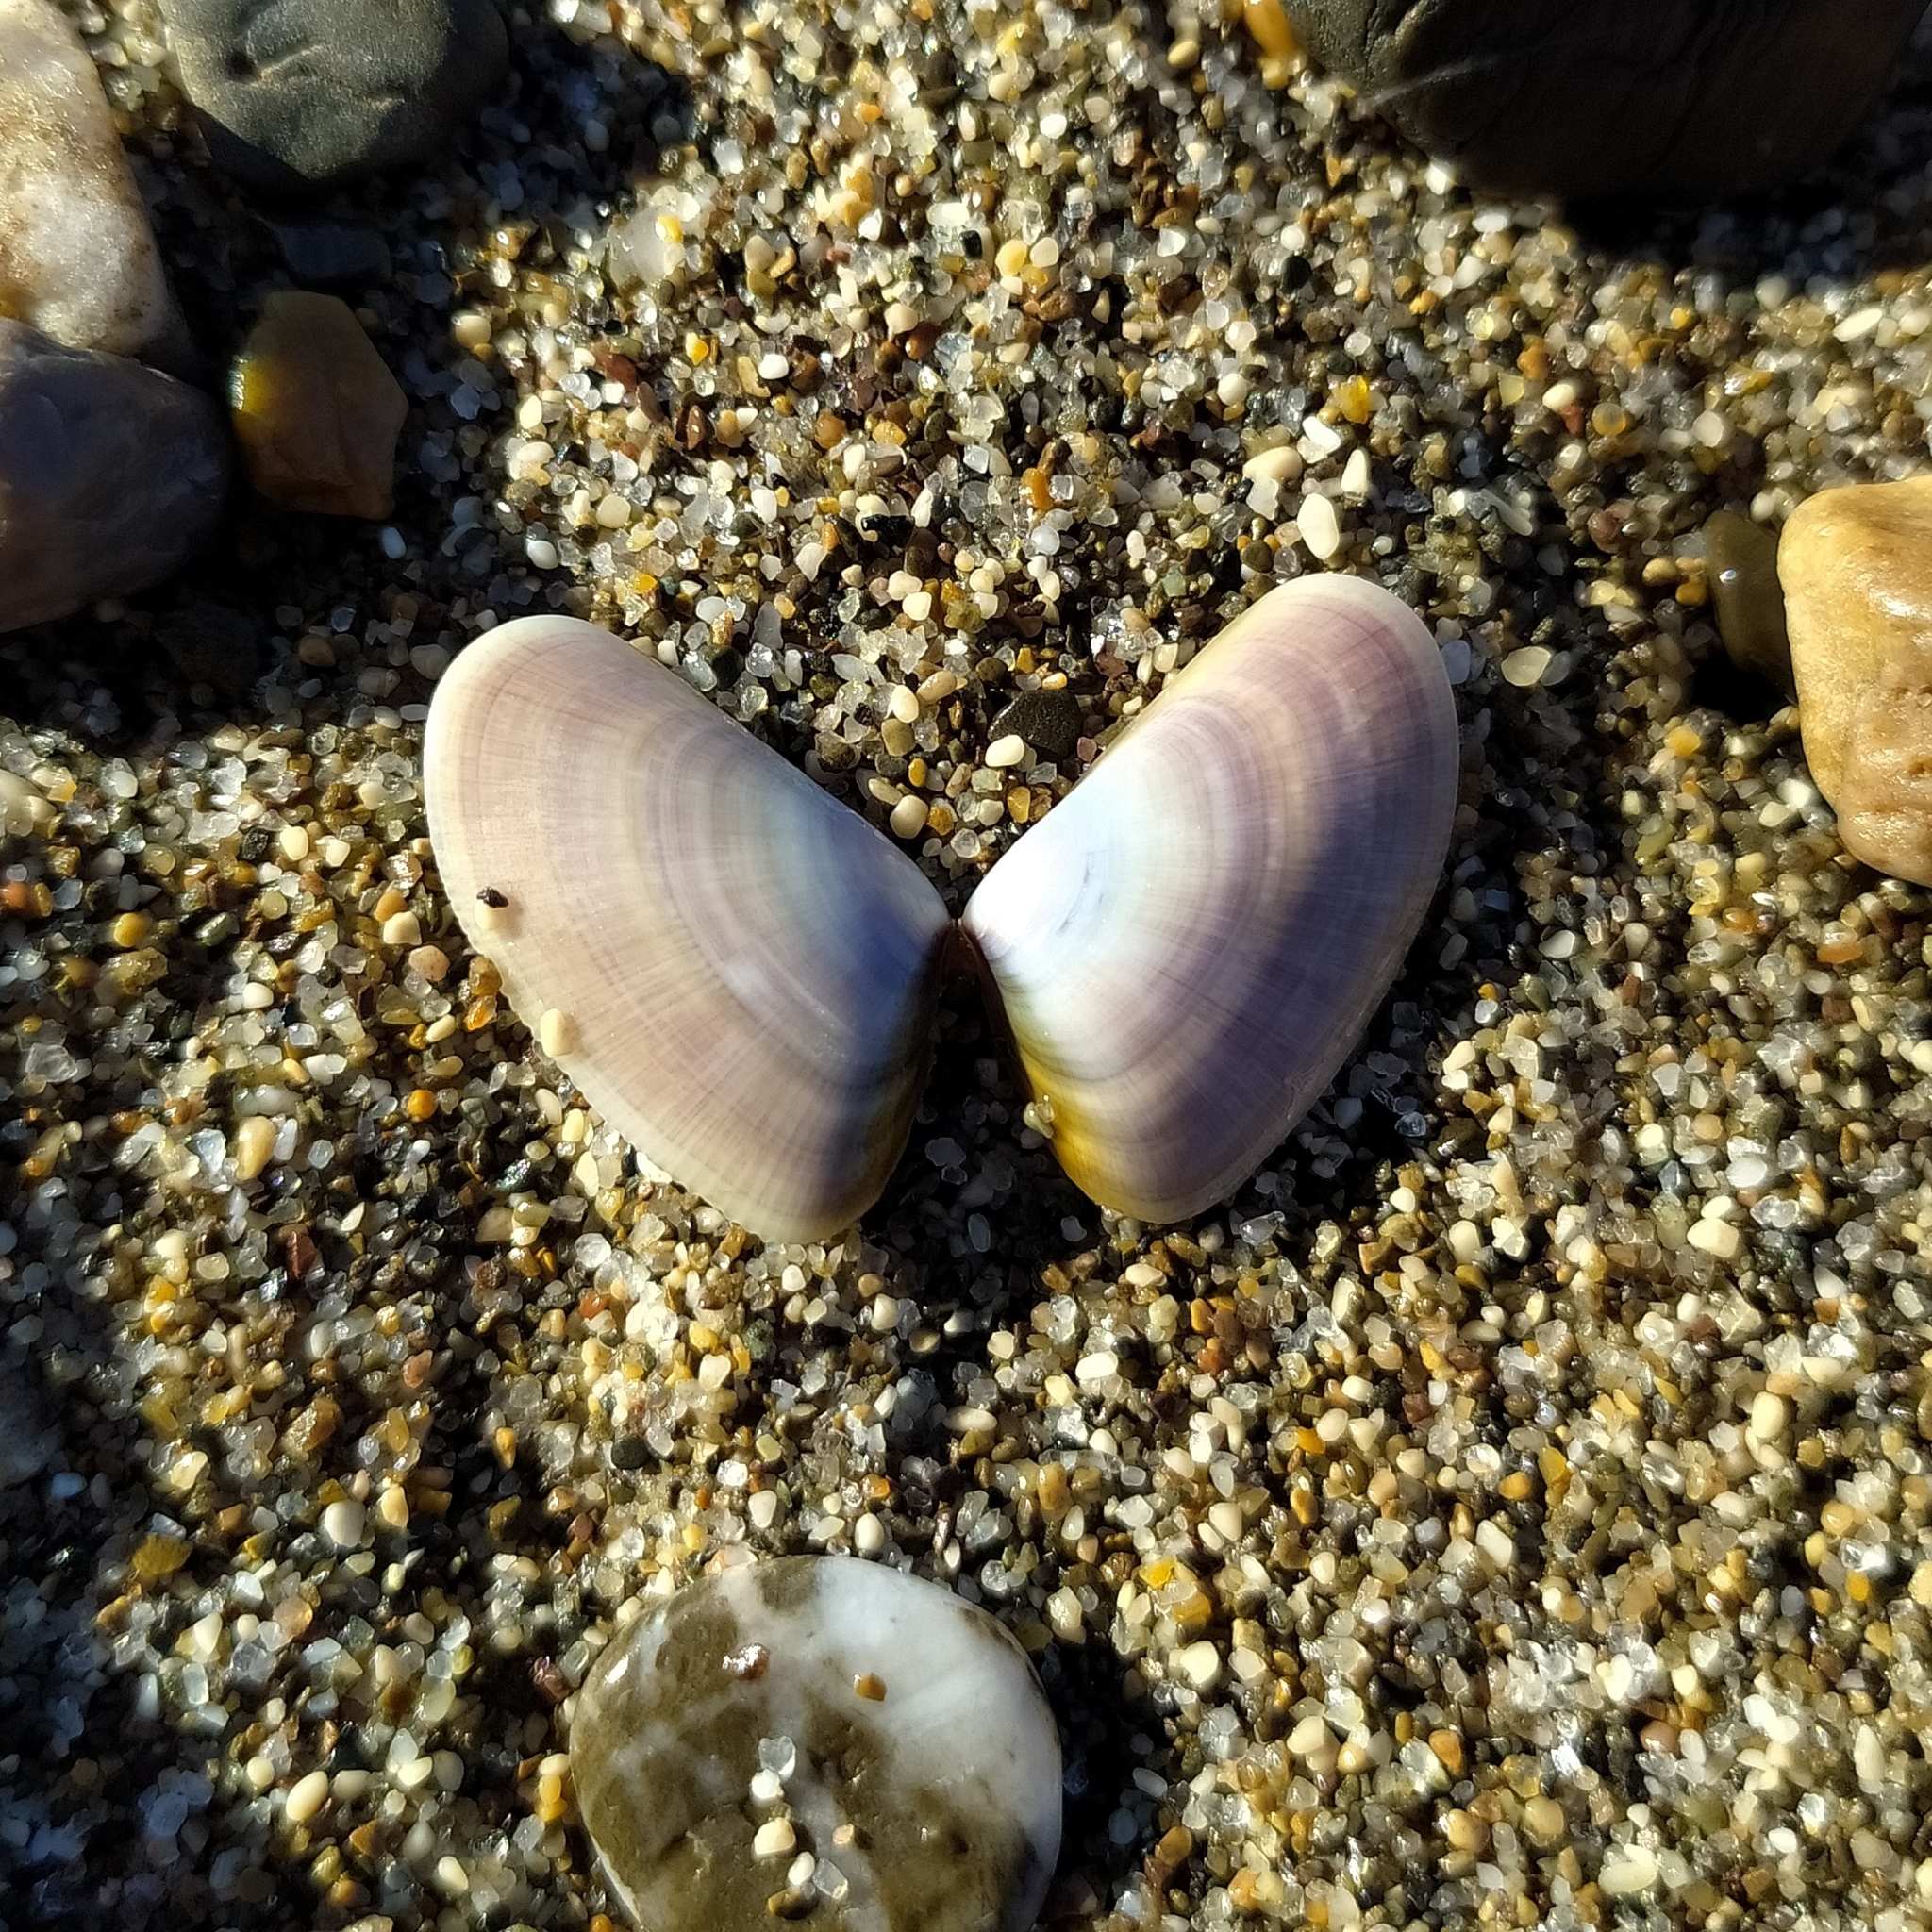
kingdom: Animalia
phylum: Mollusca
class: Bivalvia
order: Cardiida
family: Donacidae
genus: Donax
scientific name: Donax trunculus
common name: Truncate donax
